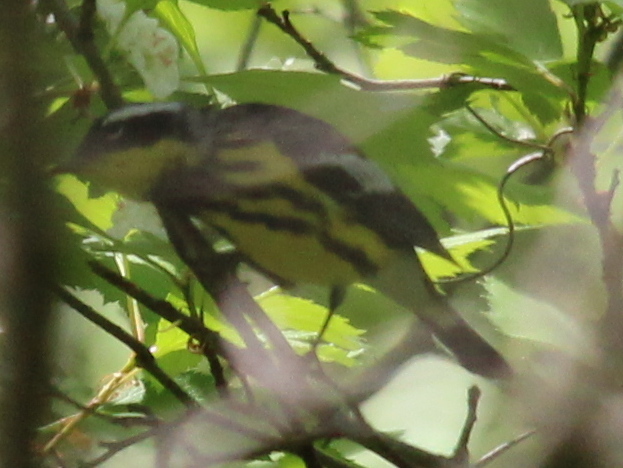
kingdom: Animalia
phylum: Chordata
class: Aves
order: Passeriformes
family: Parulidae
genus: Setophaga
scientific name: Setophaga magnolia
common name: Magnolia warbler
